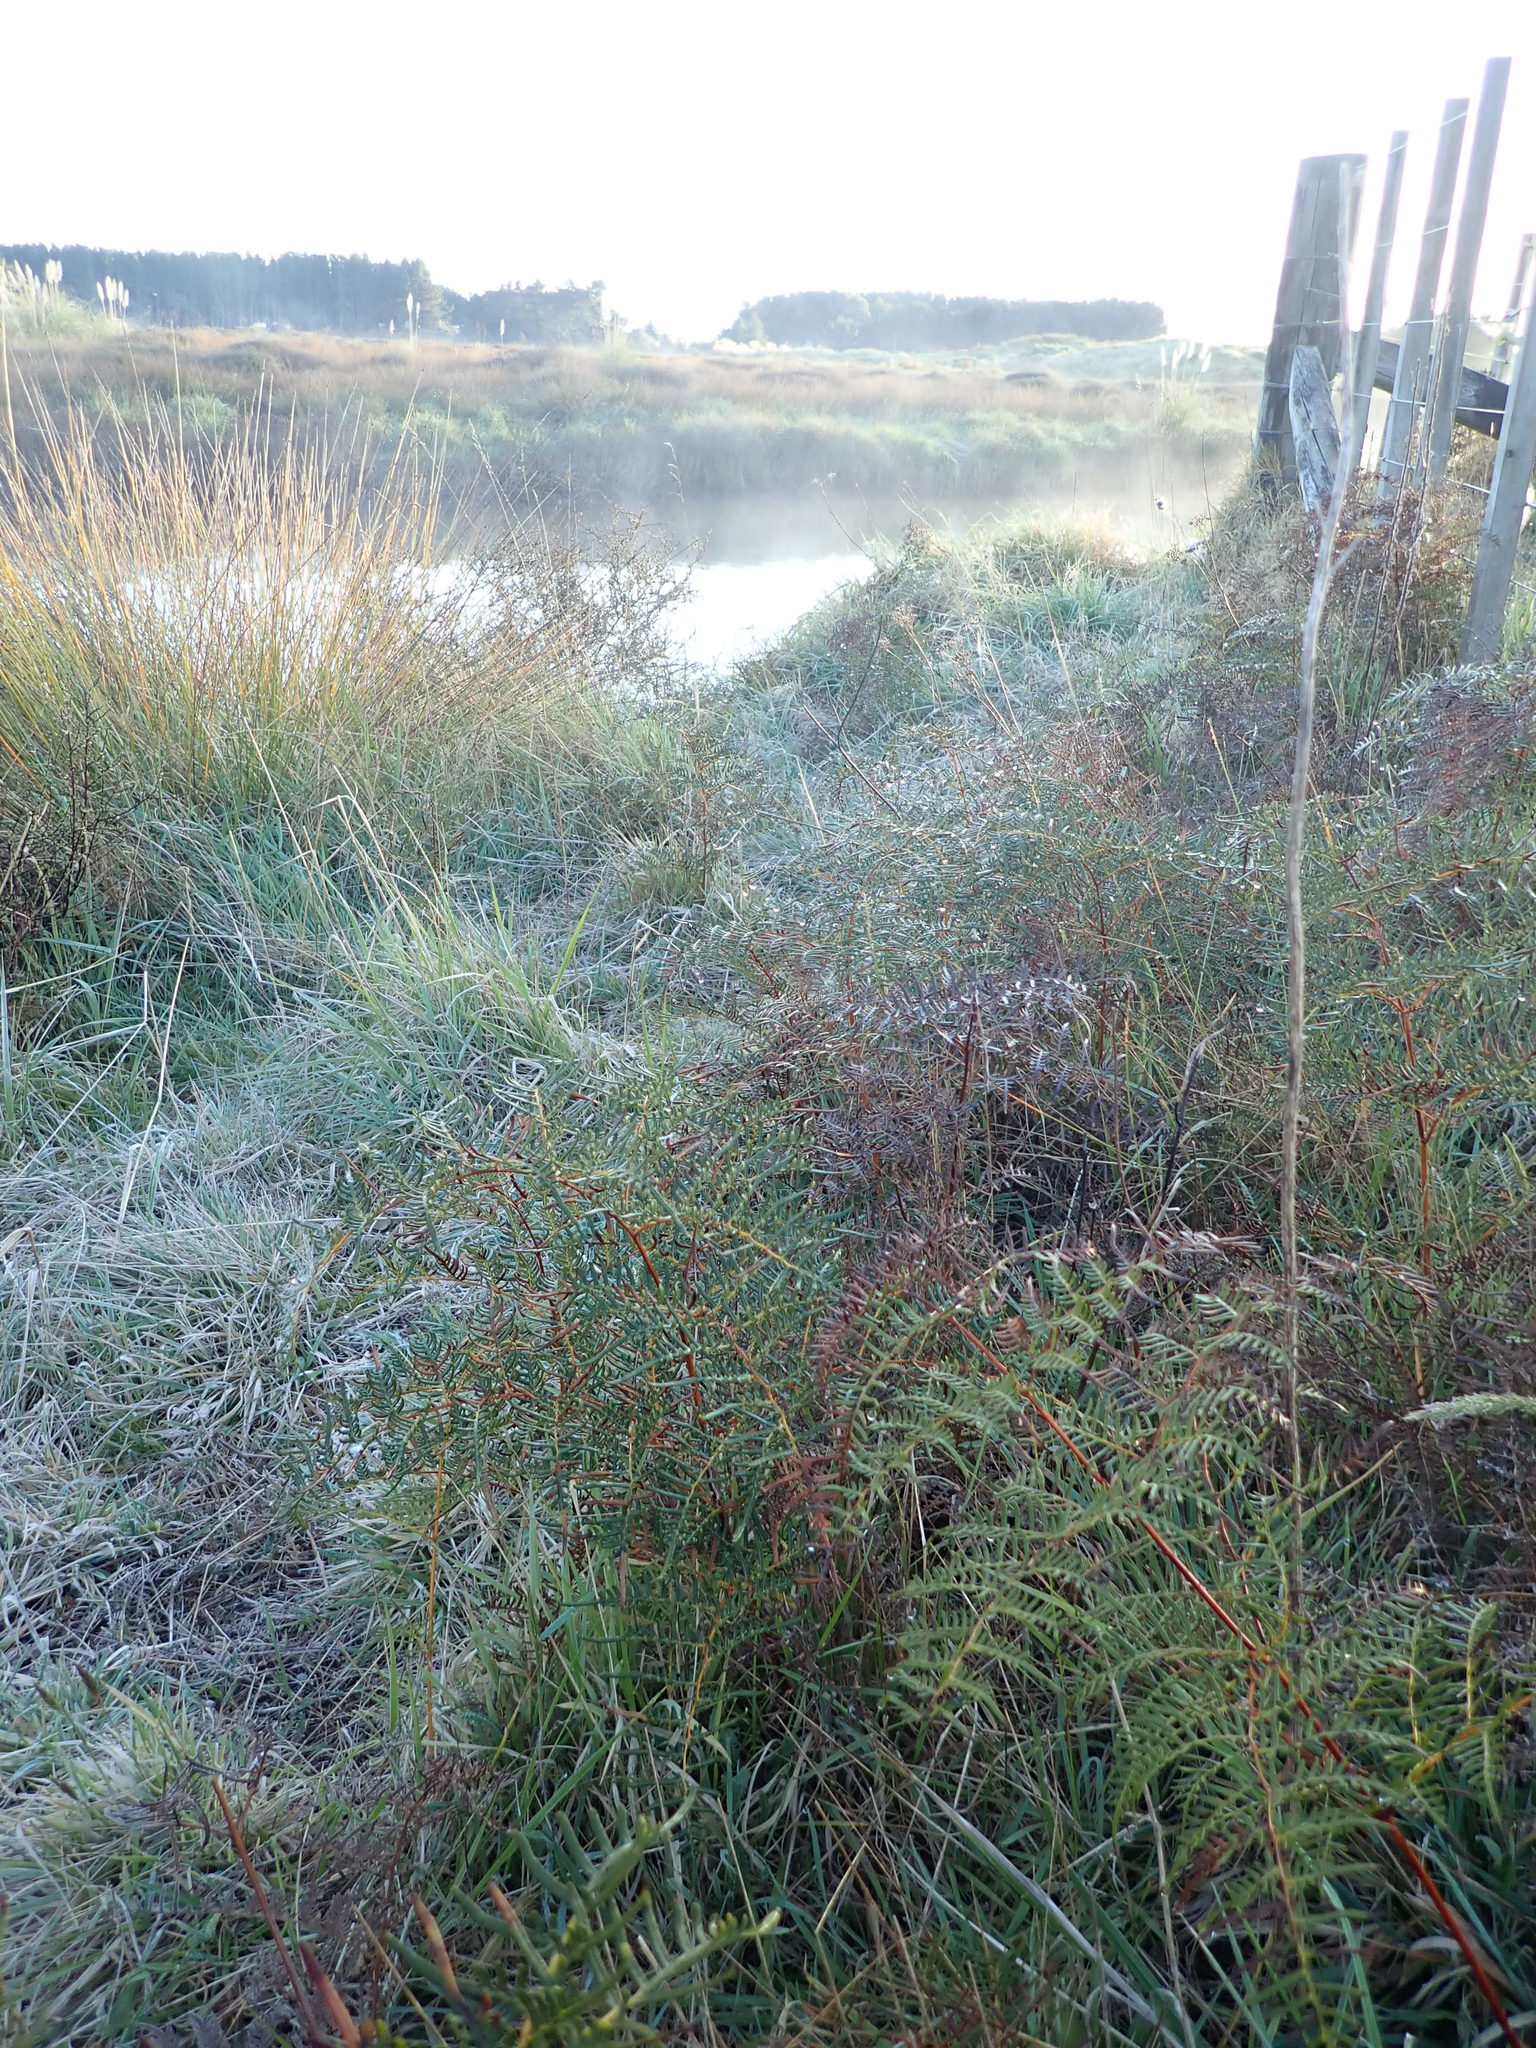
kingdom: Plantae
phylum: Tracheophyta
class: Polypodiopsida
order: Polypodiales
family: Dennstaedtiaceae
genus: Pteridium
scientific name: Pteridium esculentum
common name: Bracken fern
